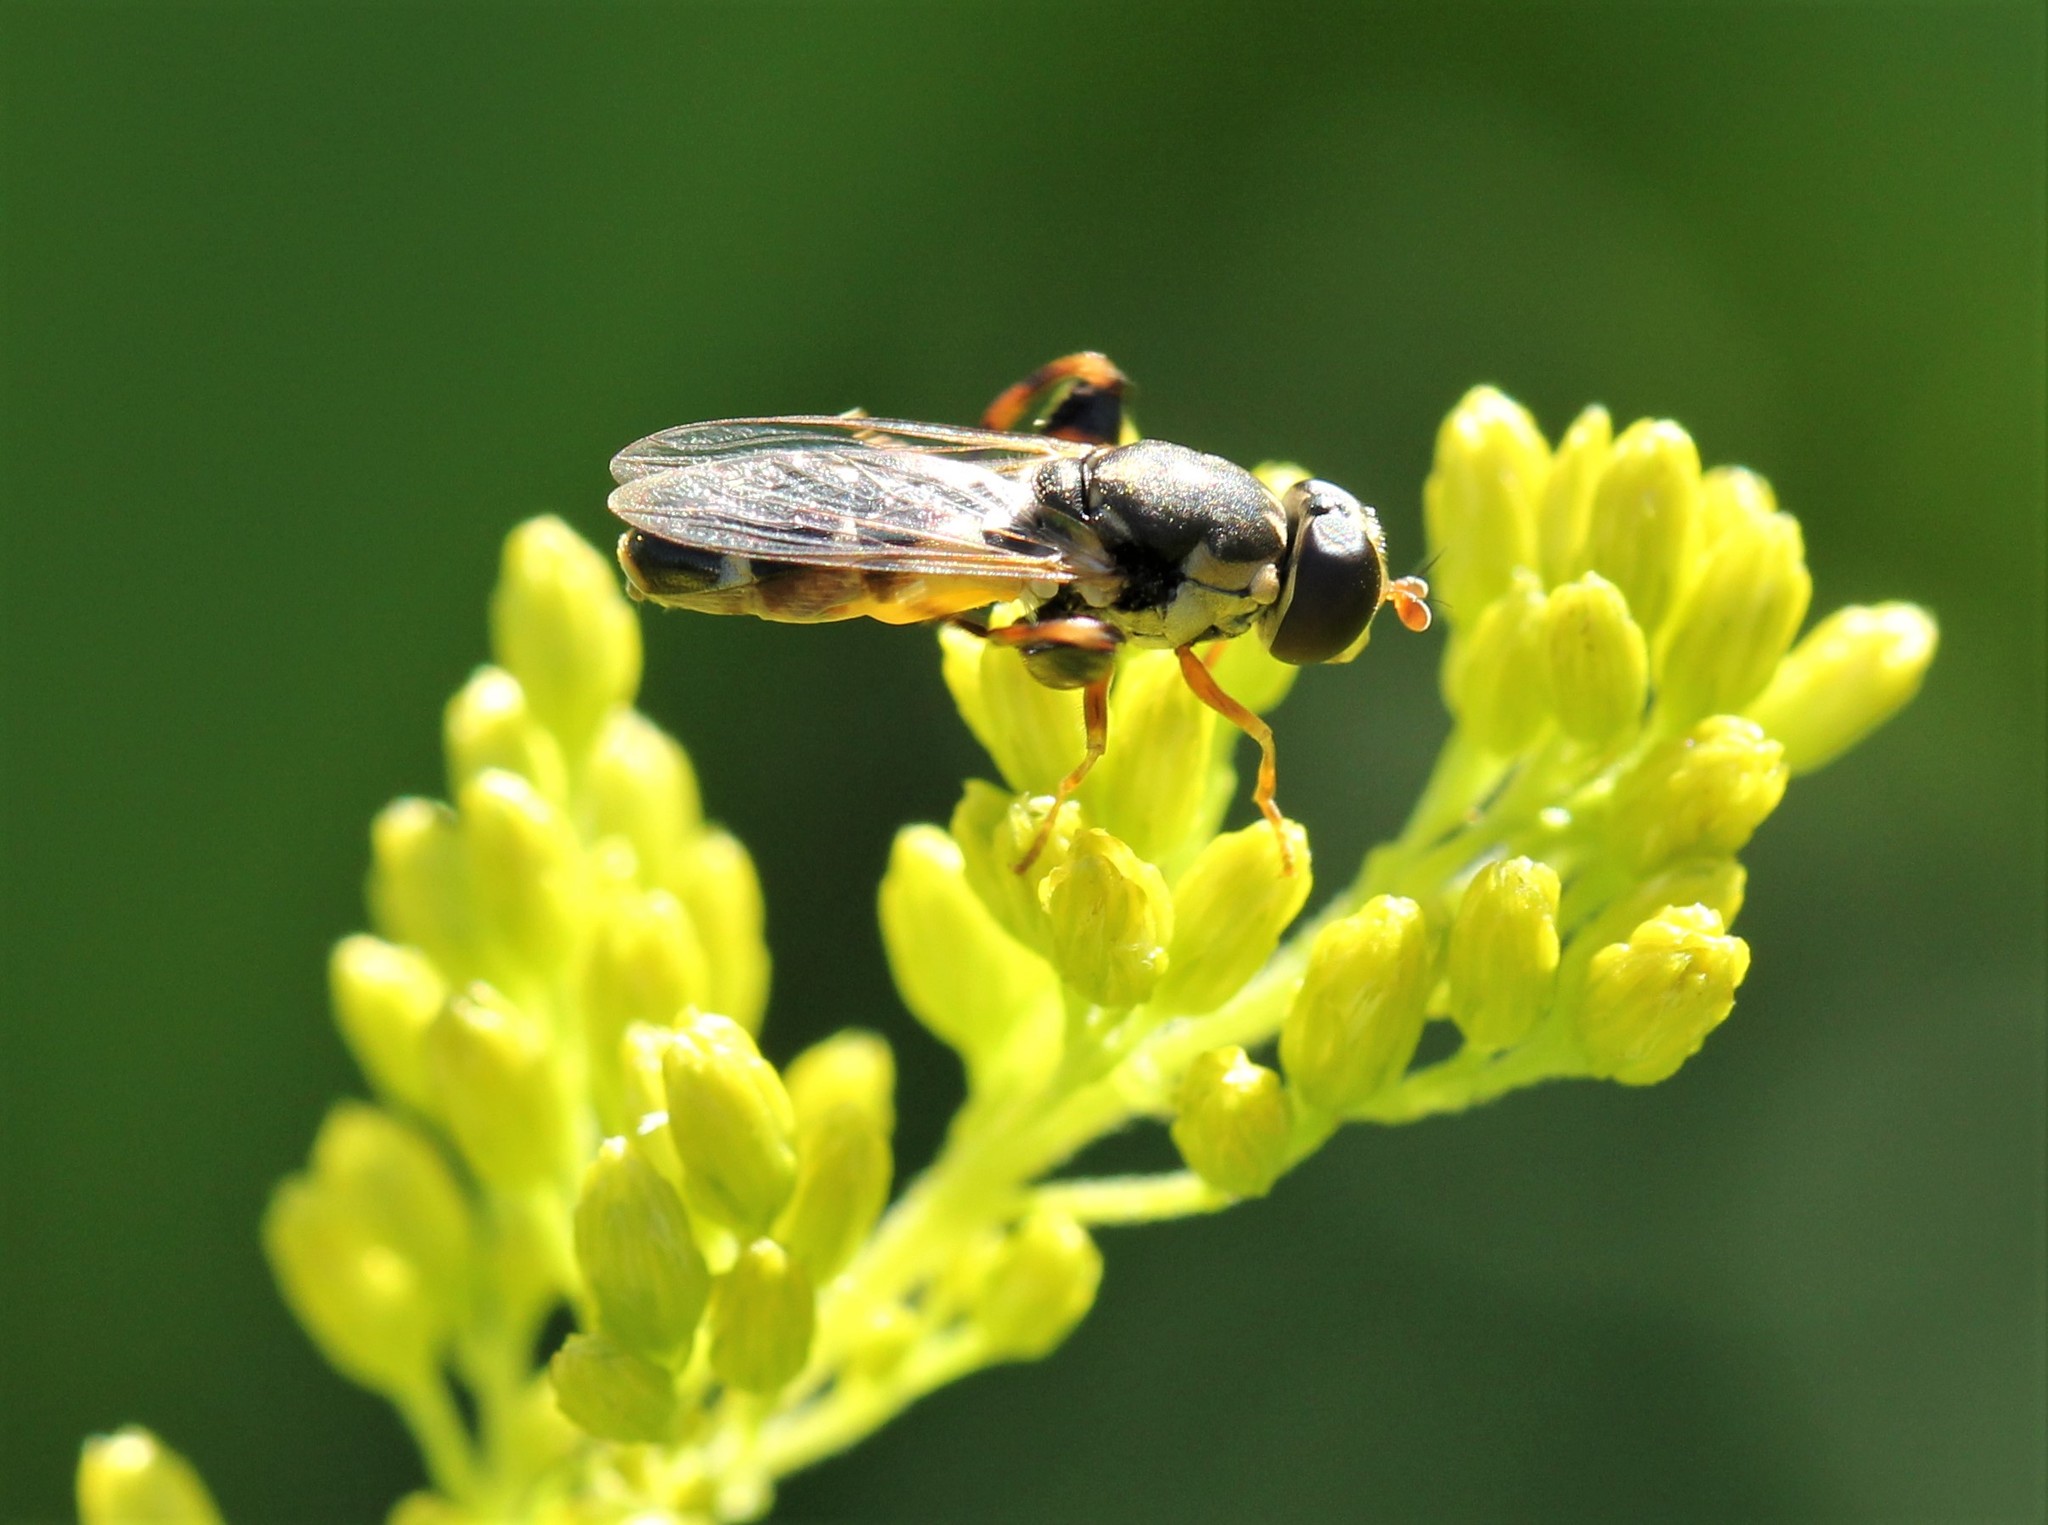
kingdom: Animalia
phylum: Arthropoda
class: Insecta
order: Diptera
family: Syrphidae
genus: Syritta
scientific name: Syritta pipiens
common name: Hover fly
